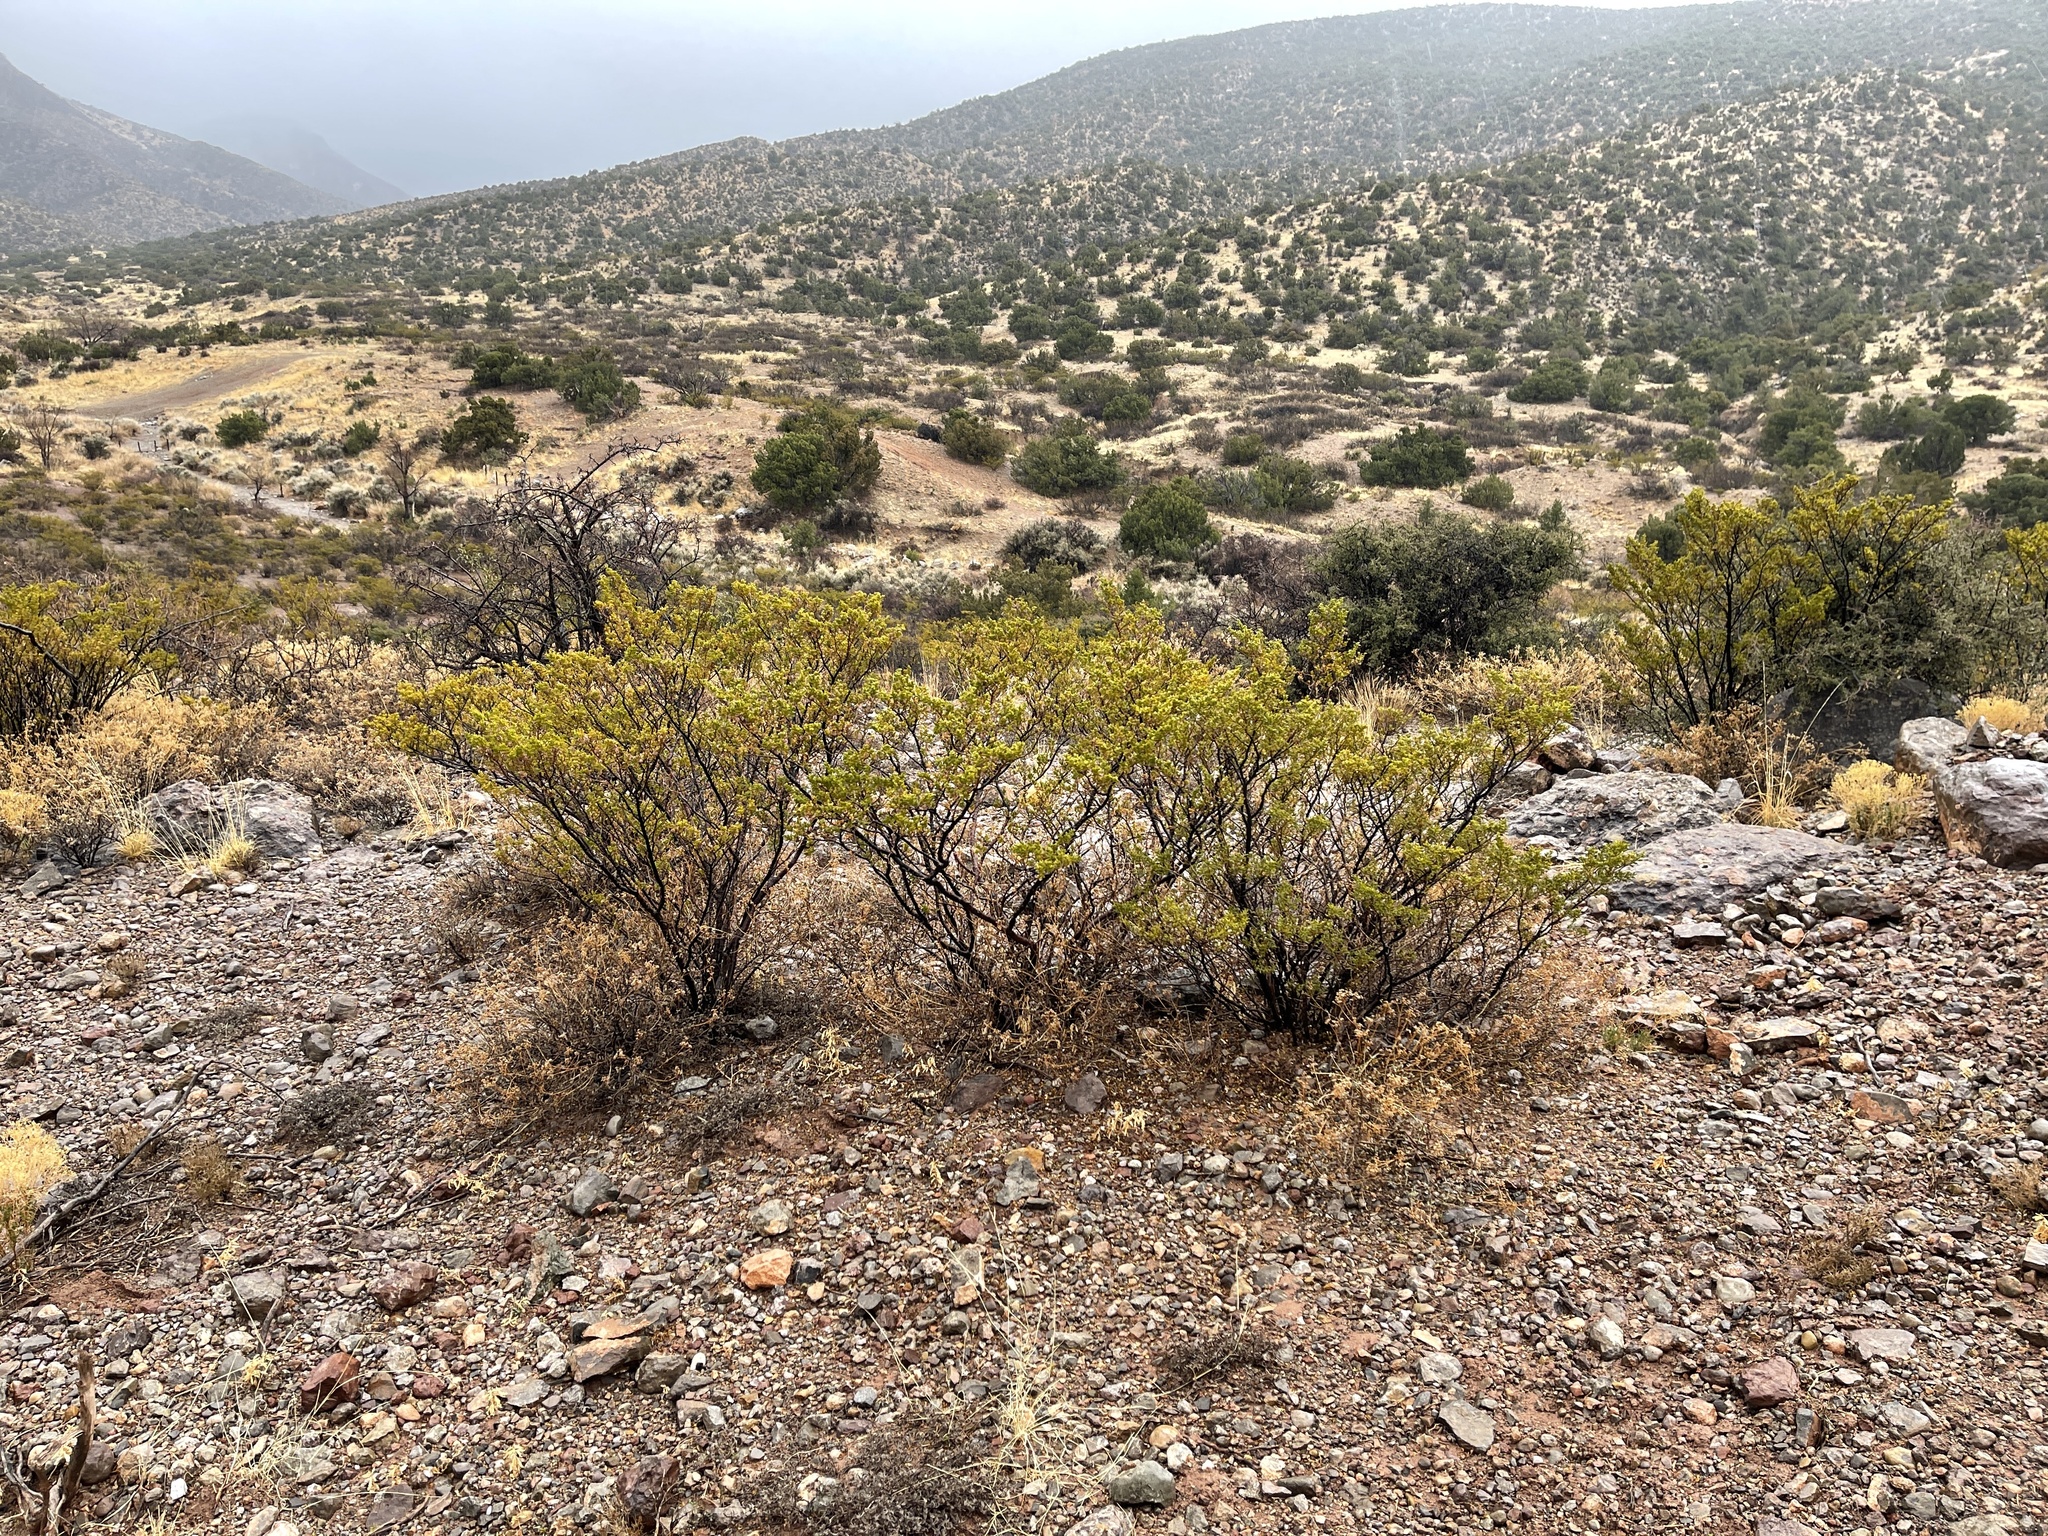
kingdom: Plantae
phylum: Tracheophyta
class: Magnoliopsida
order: Zygophyllales
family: Zygophyllaceae
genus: Larrea
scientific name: Larrea tridentata
